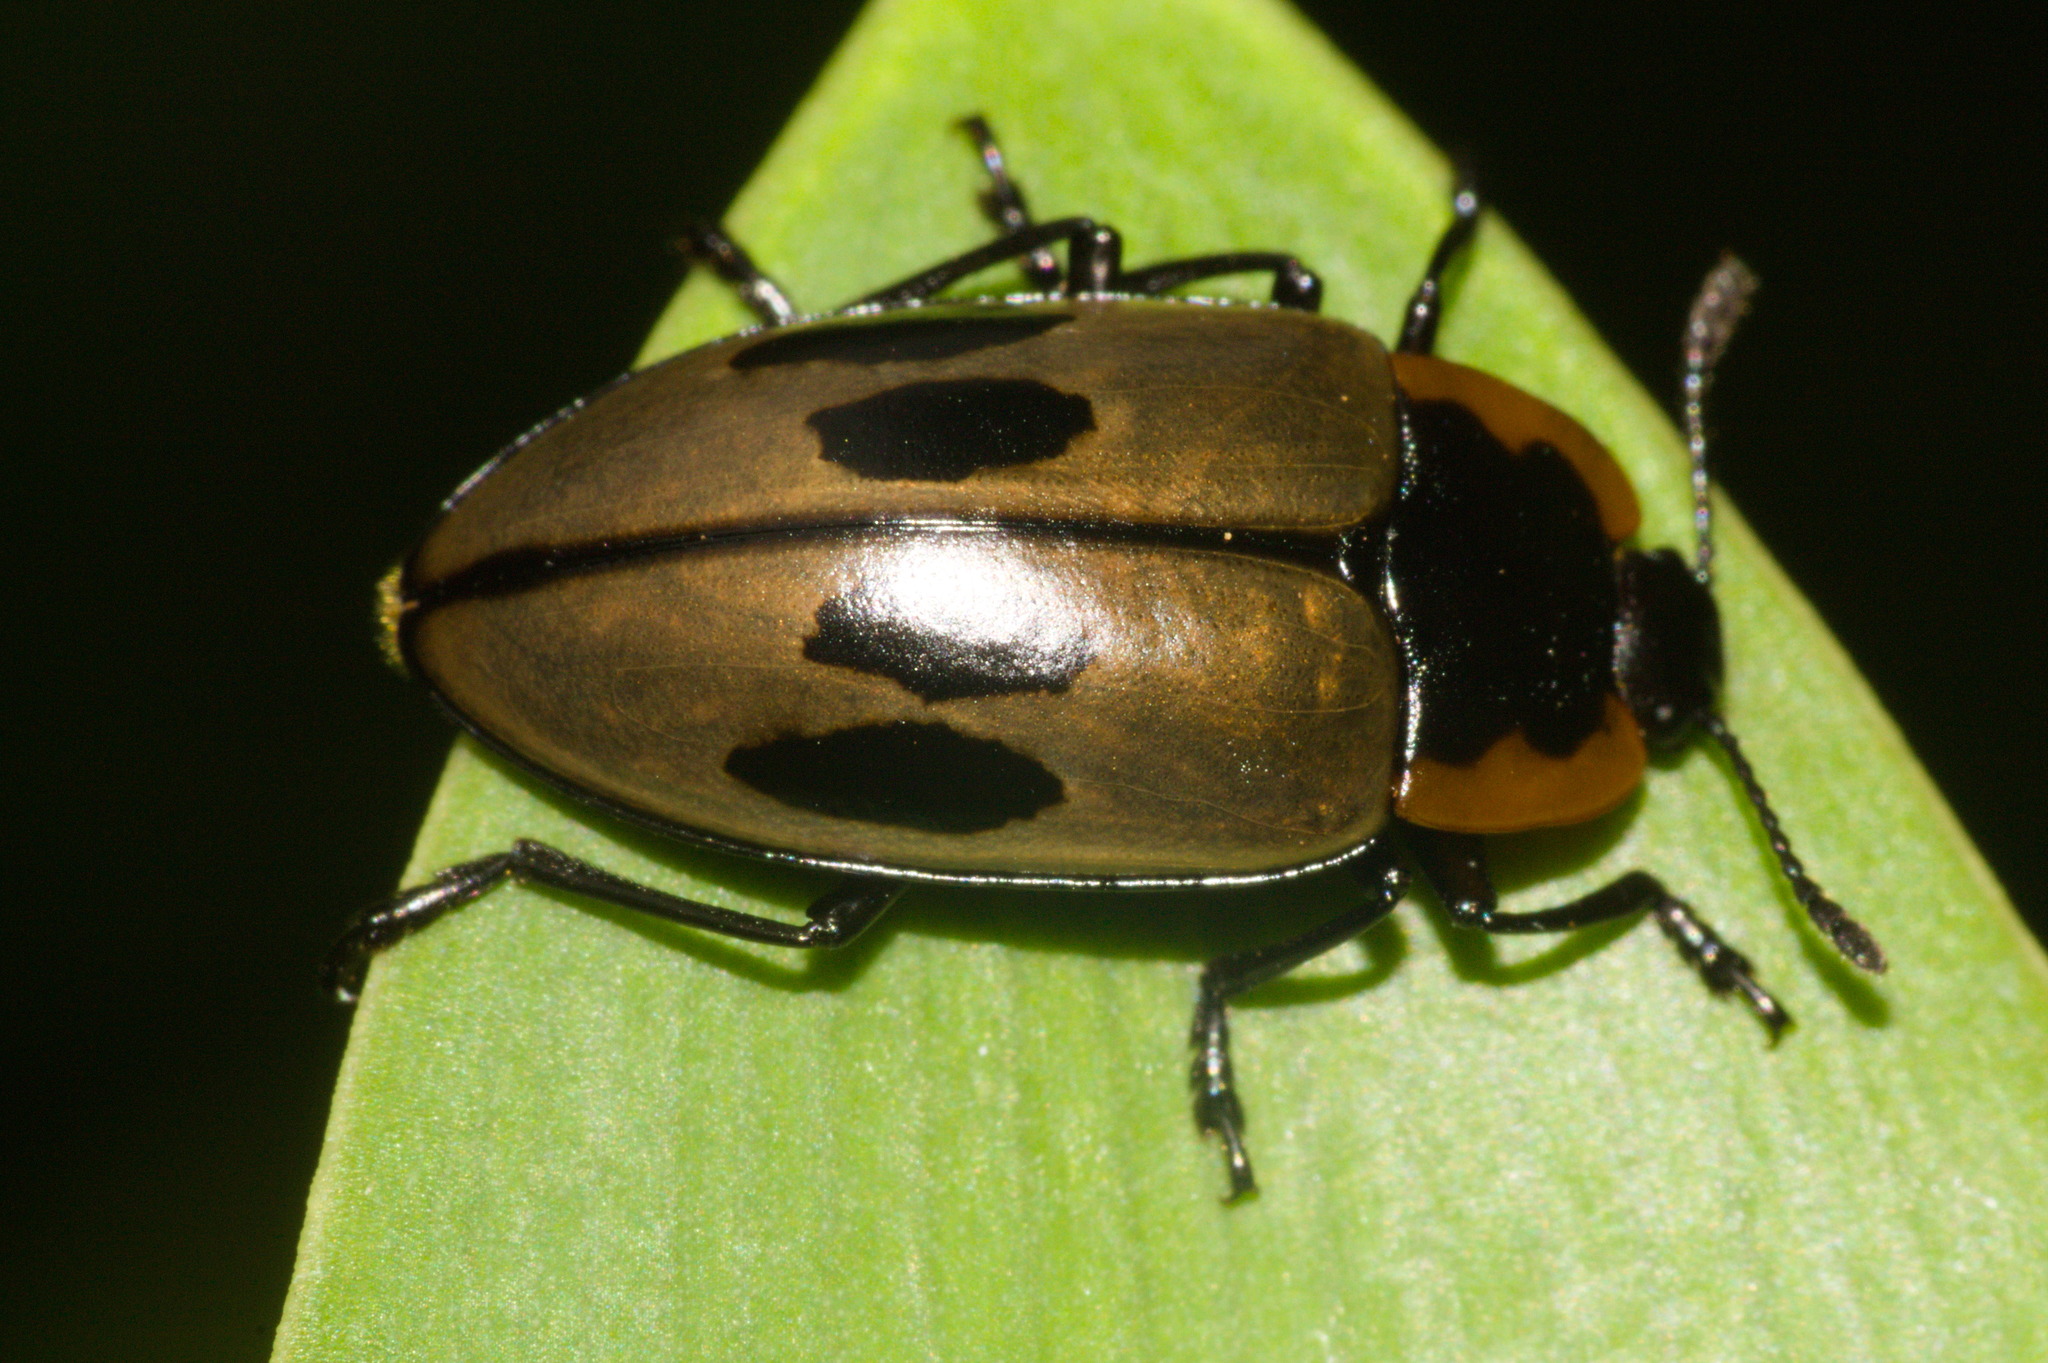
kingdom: Animalia
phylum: Arthropoda
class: Insecta
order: Coleoptera
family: Erotylidae
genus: Iphiclus
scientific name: Iphiclus
